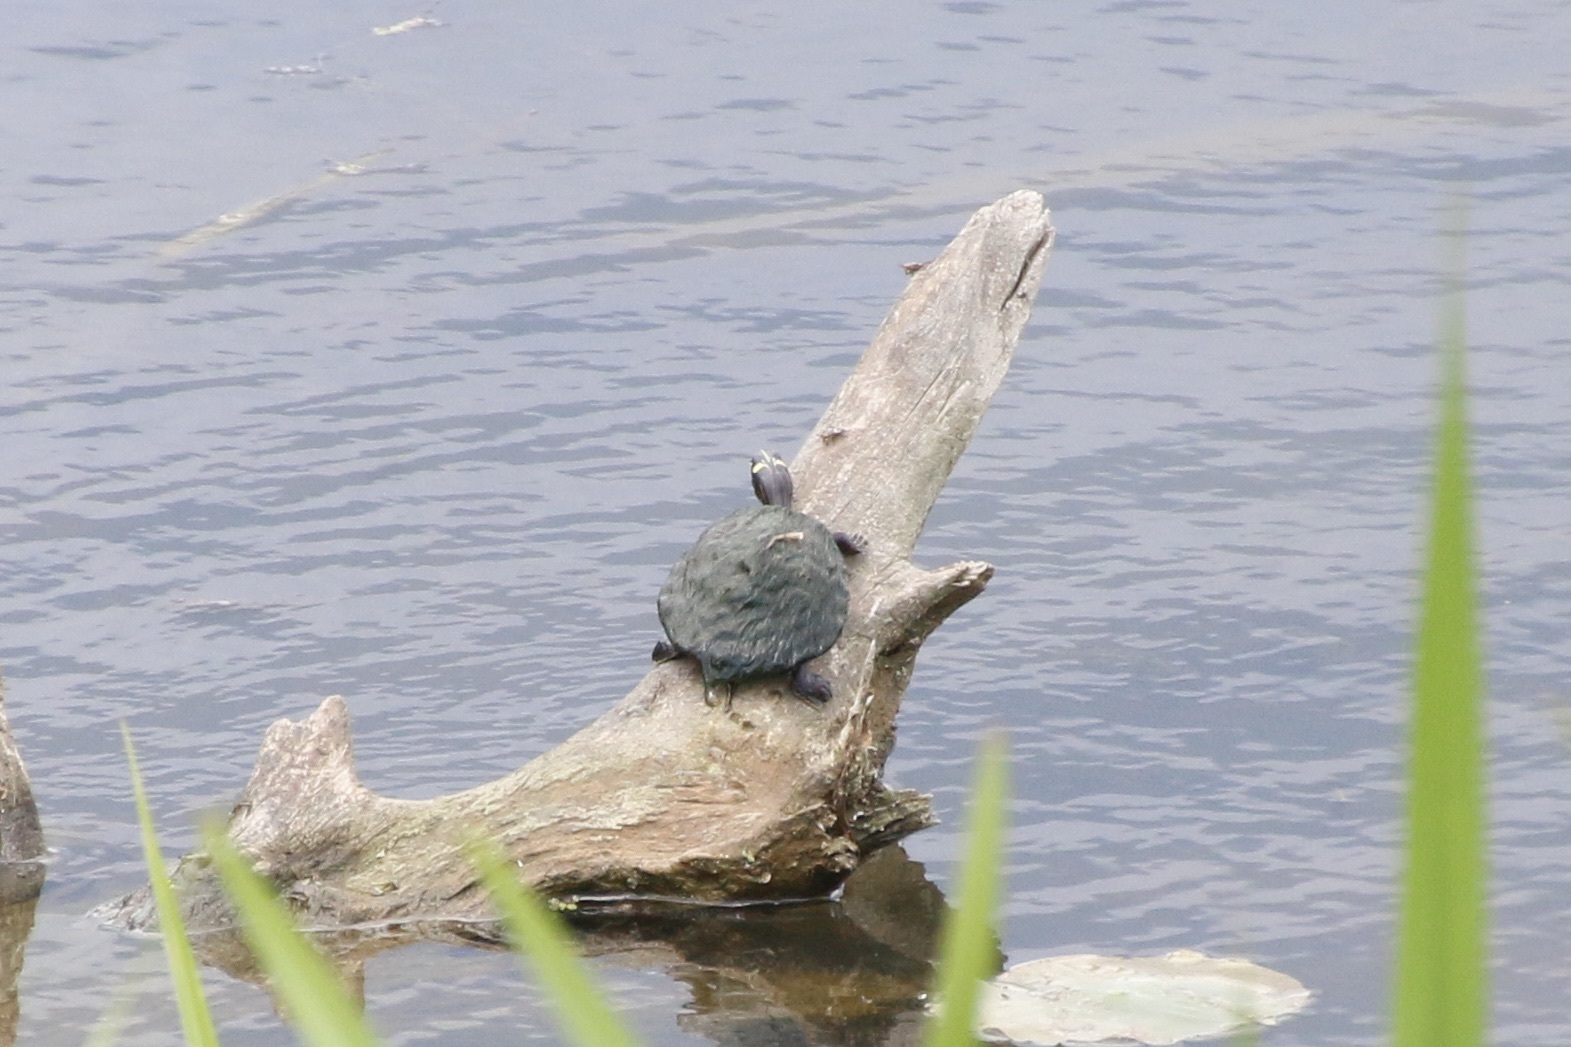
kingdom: Animalia
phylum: Chordata
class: Testudines
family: Emydidae
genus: Graptemys
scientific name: Graptemys ouachitensis
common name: Ouachita map turtle
